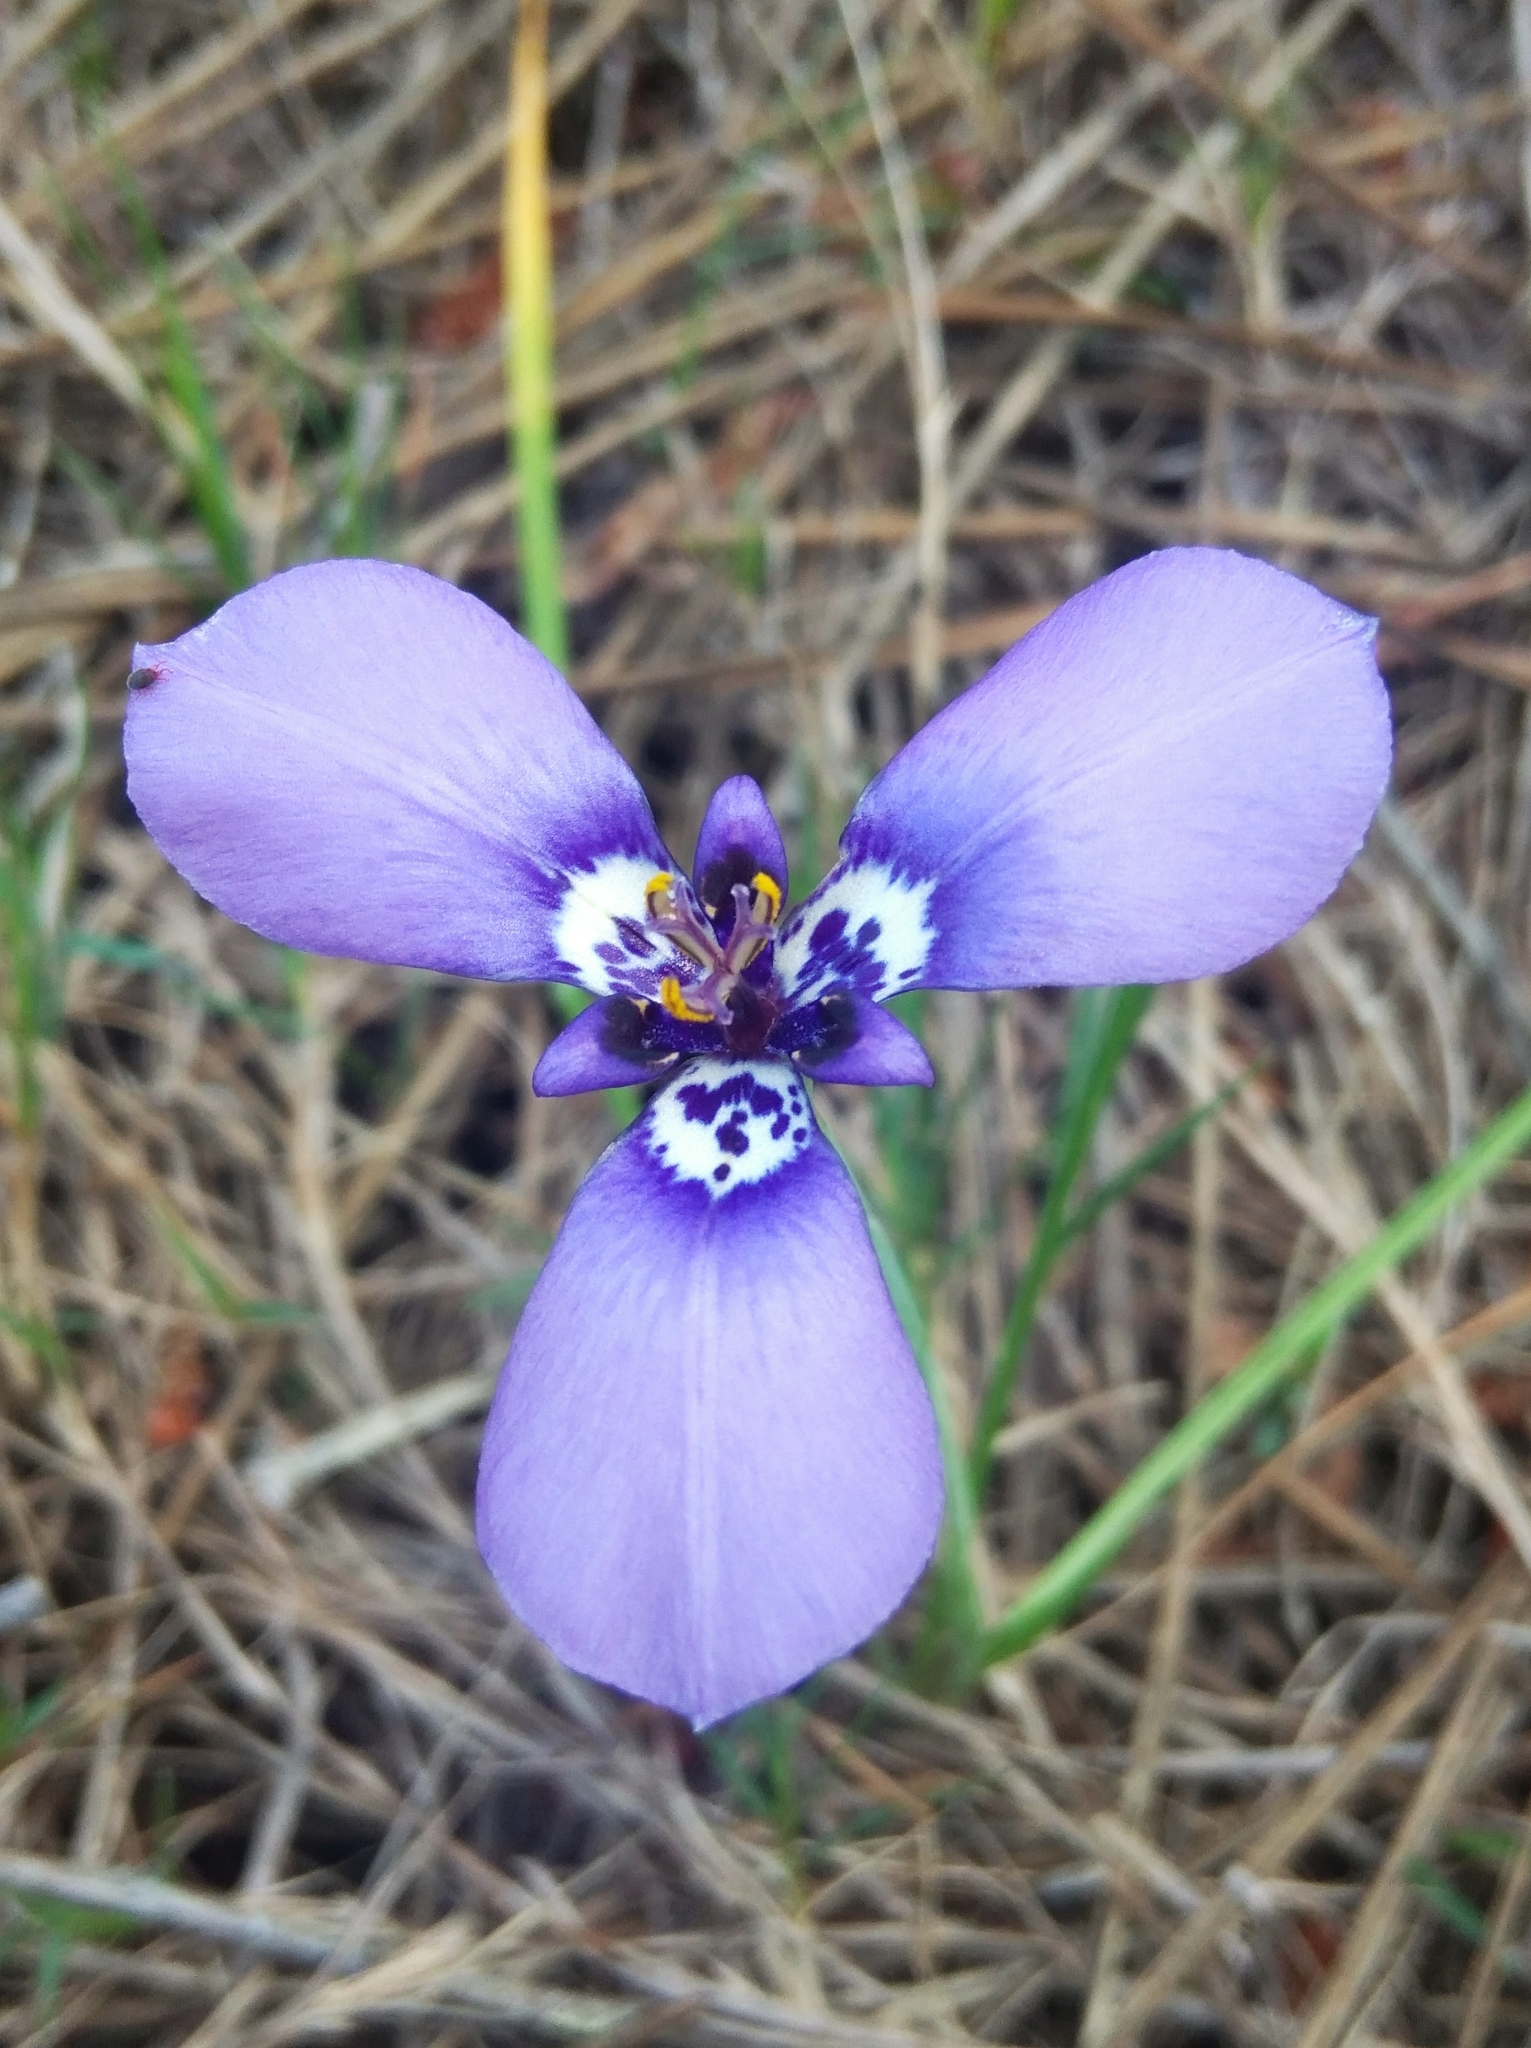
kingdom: Plantae
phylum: Tracheophyta
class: Liliopsida
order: Asparagales
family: Iridaceae
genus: Herbertia
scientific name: Herbertia lahue
